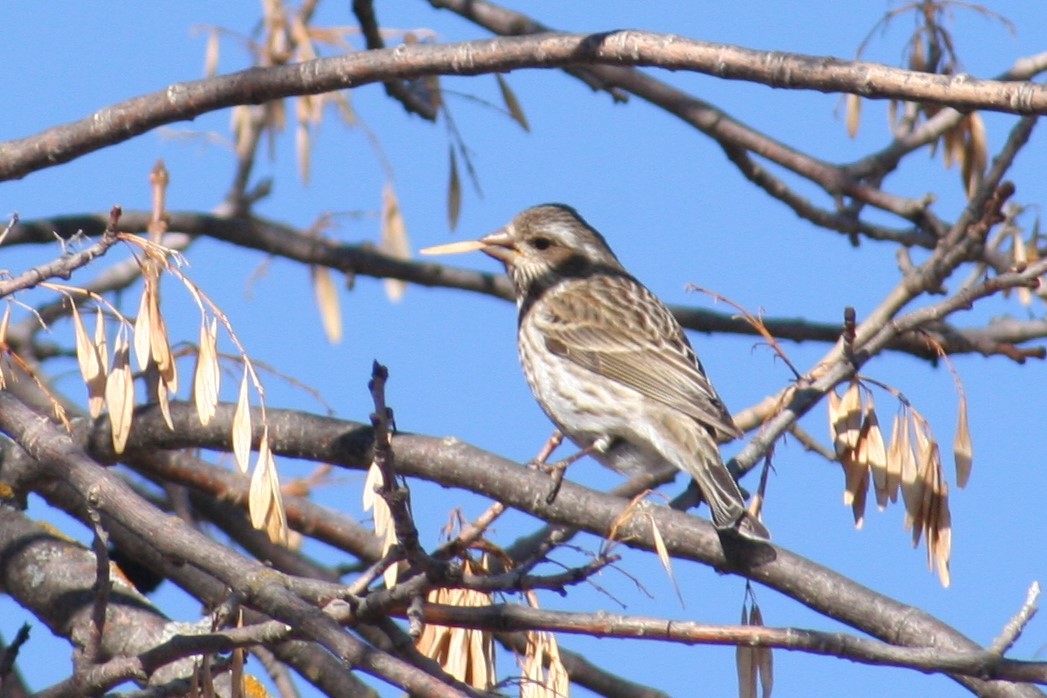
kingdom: Animalia
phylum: Chordata
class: Aves
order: Passeriformes
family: Fringillidae
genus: Haemorhous
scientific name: Haemorhous purpureus
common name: Purple finch
